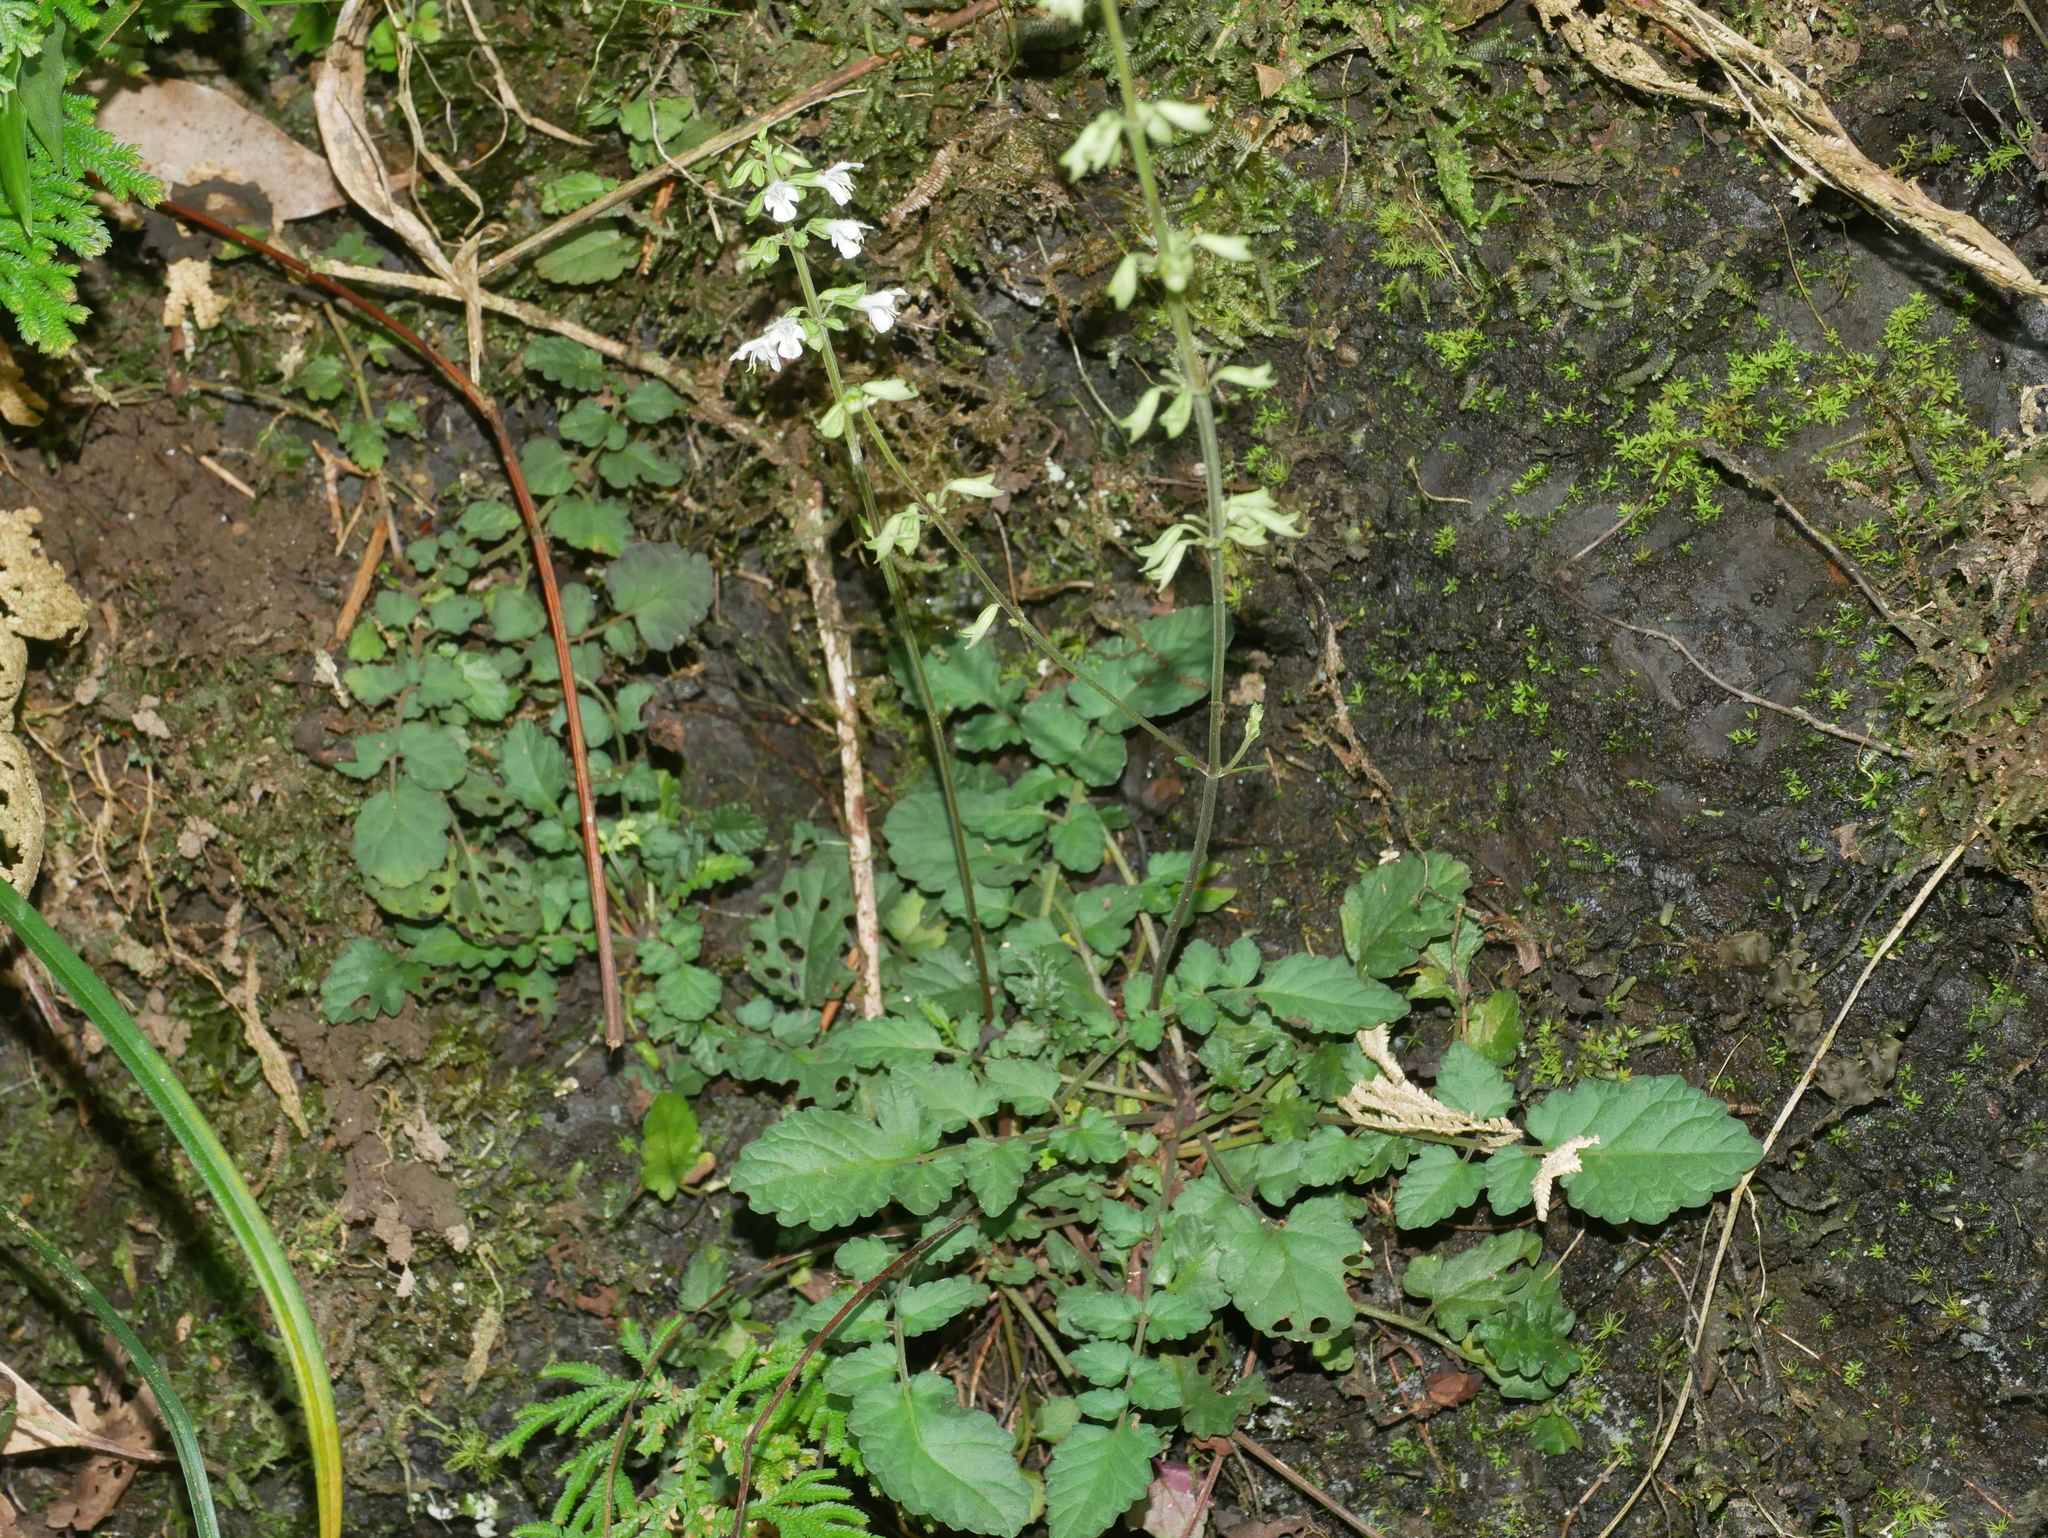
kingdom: Plantae
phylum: Tracheophyta
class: Magnoliopsida
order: Lamiales
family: Lamiaceae
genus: Salvia
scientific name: Salvia hayatae
